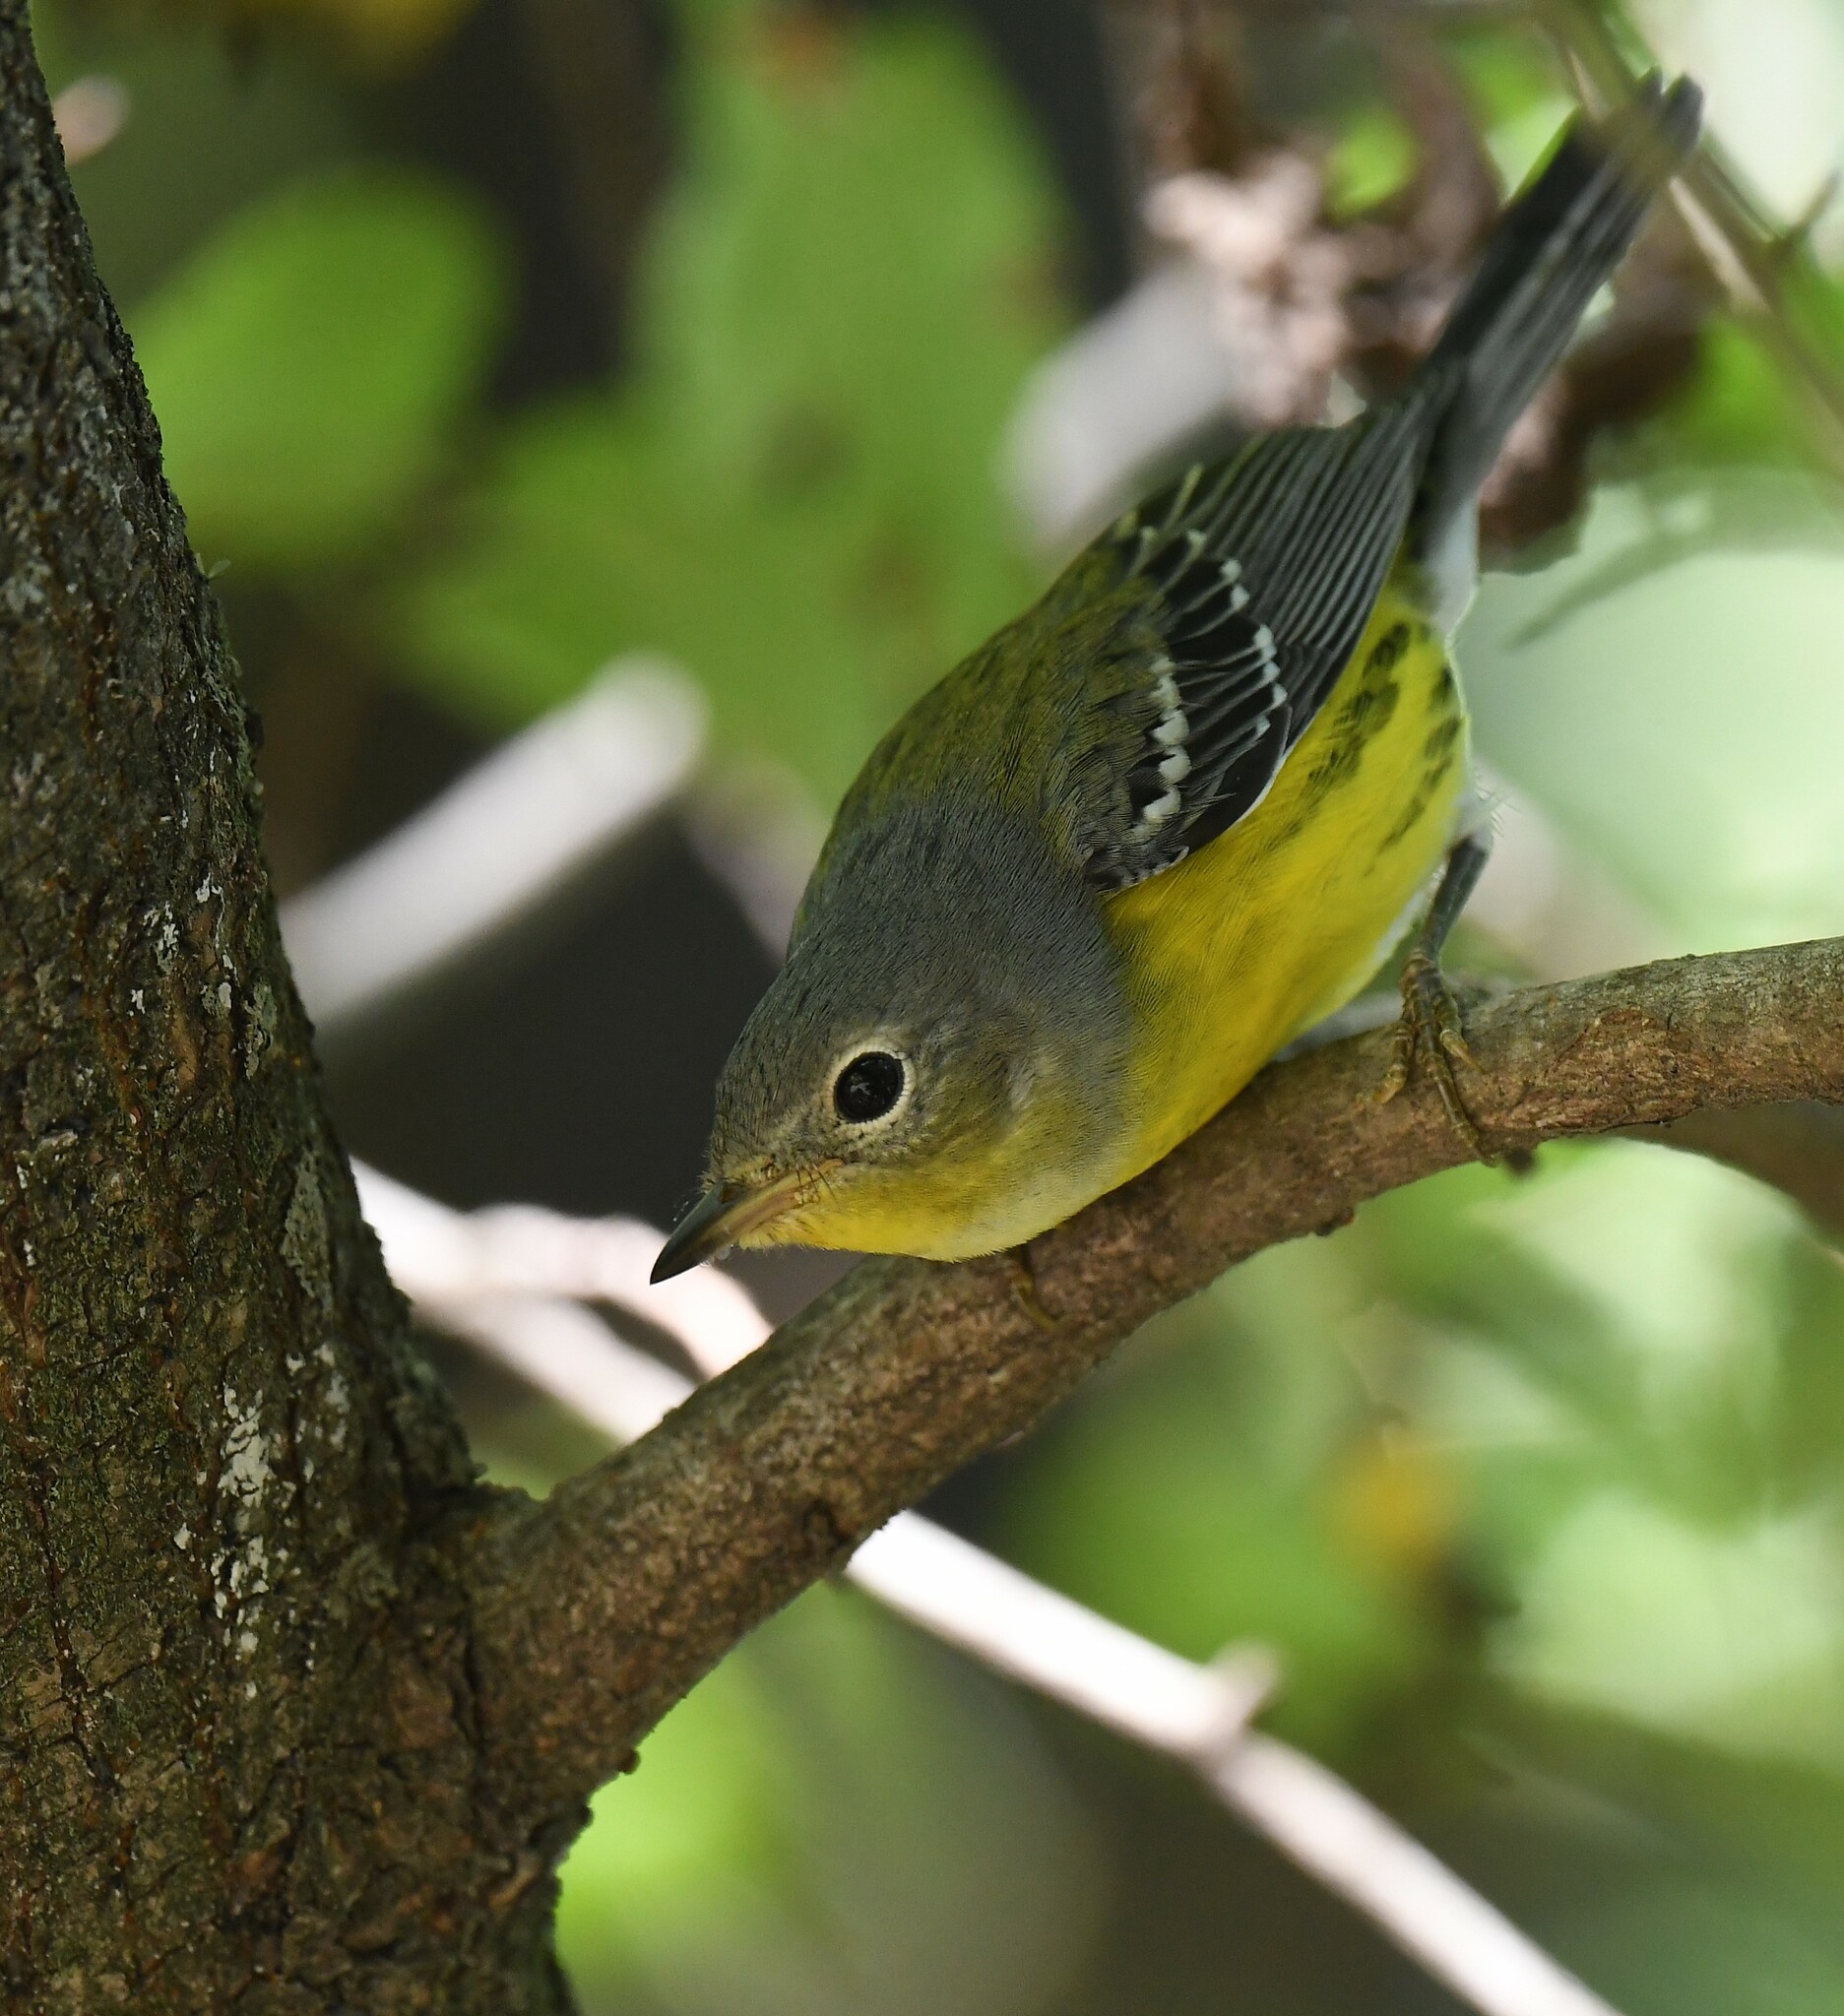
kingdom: Animalia
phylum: Chordata
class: Aves
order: Passeriformes
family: Parulidae
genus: Setophaga
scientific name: Setophaga magnolia
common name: Magnolia warbler
